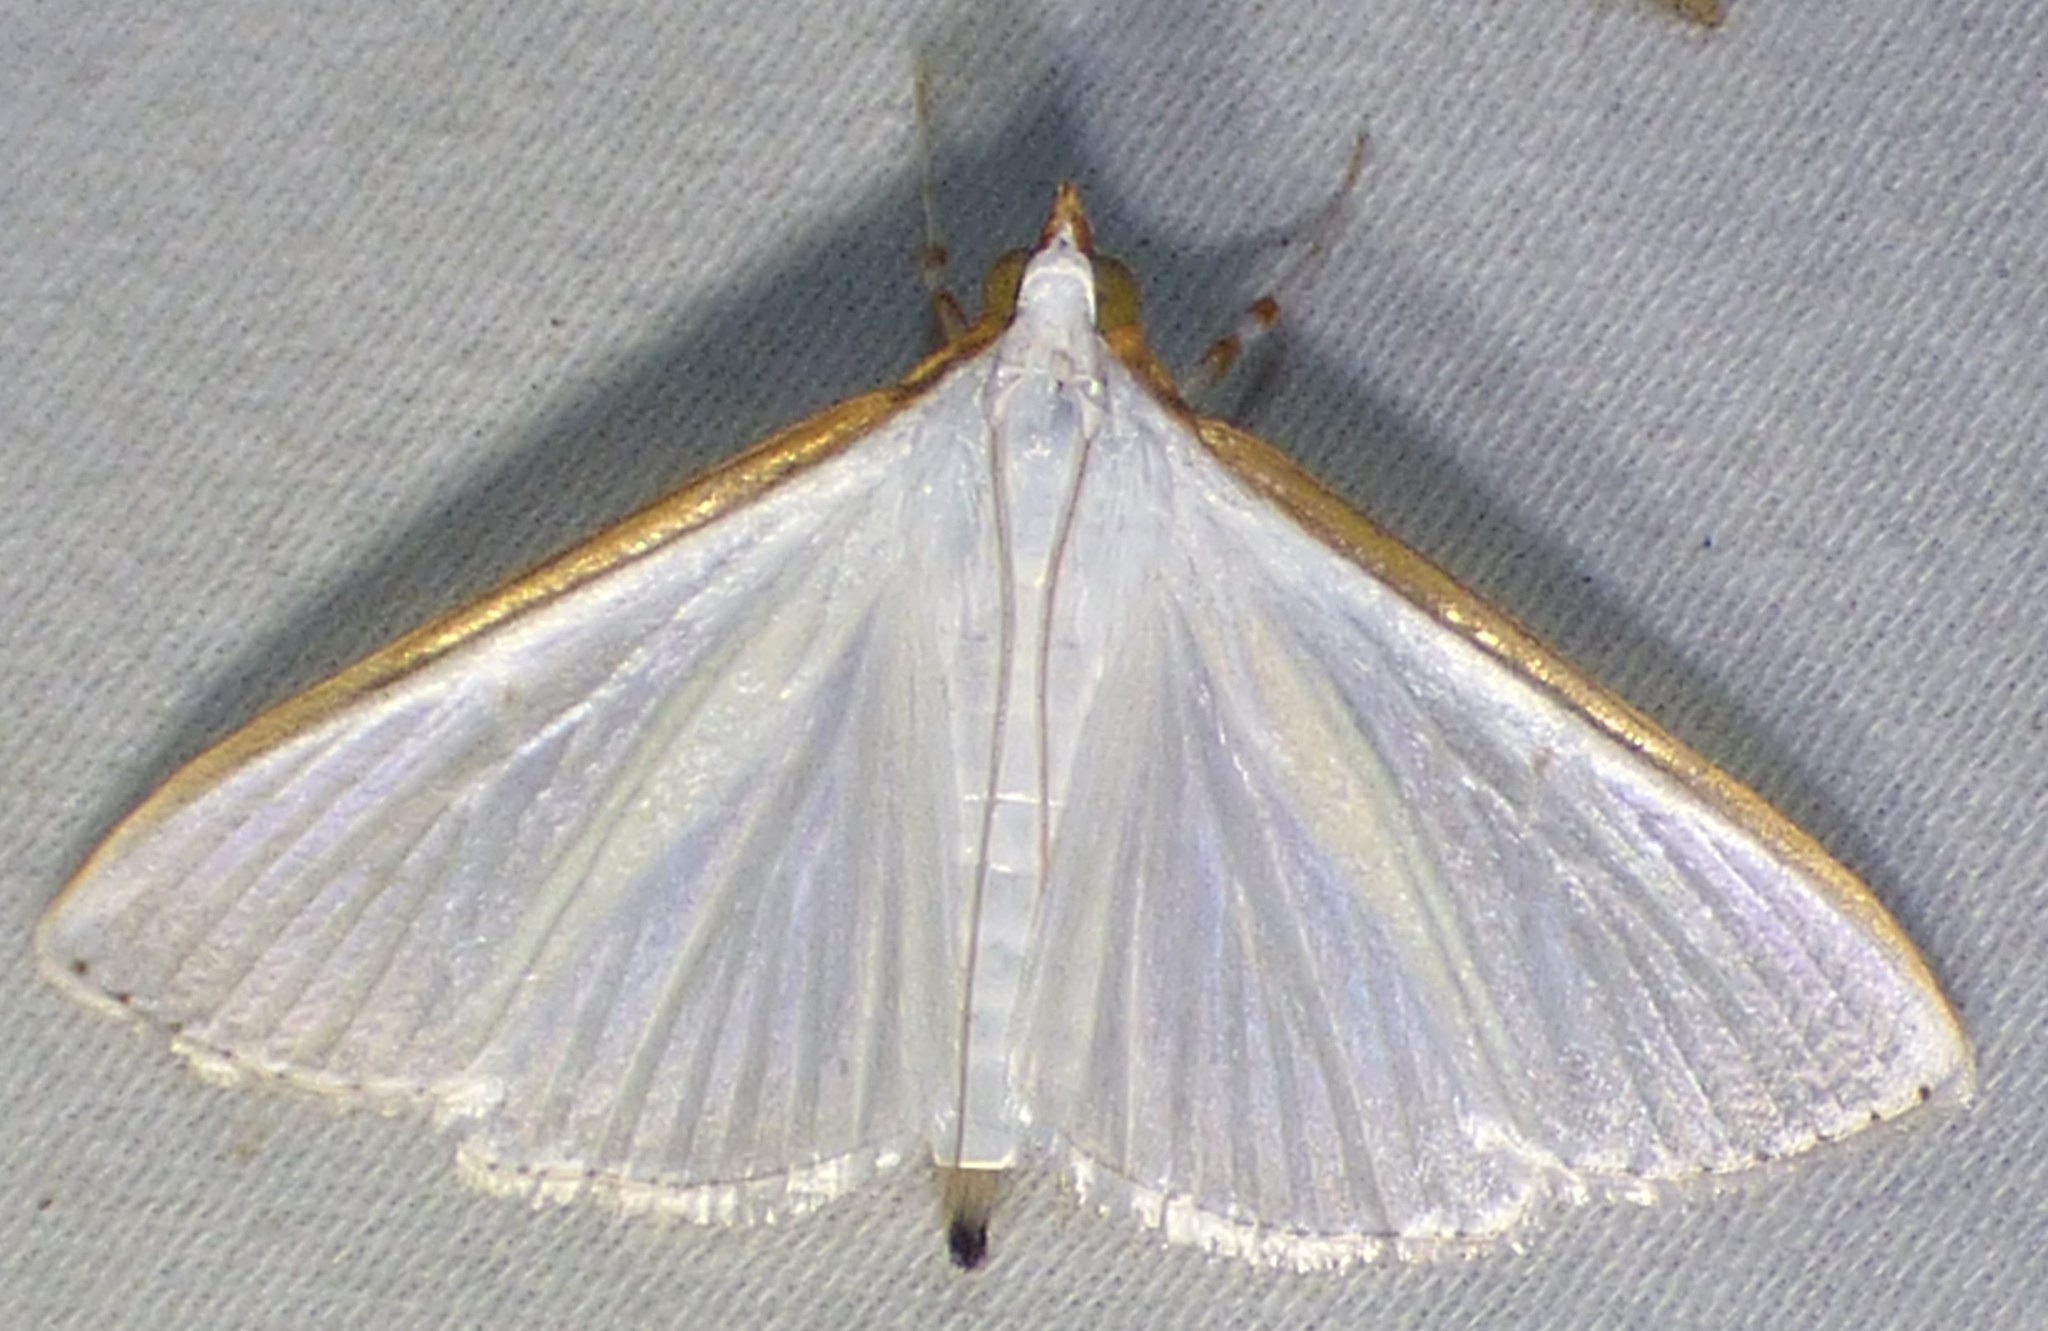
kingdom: Animalia
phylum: Arthropoda
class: Insecta
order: Lepidoptera
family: Crambidae
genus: Diaphania
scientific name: Diaphania costata
